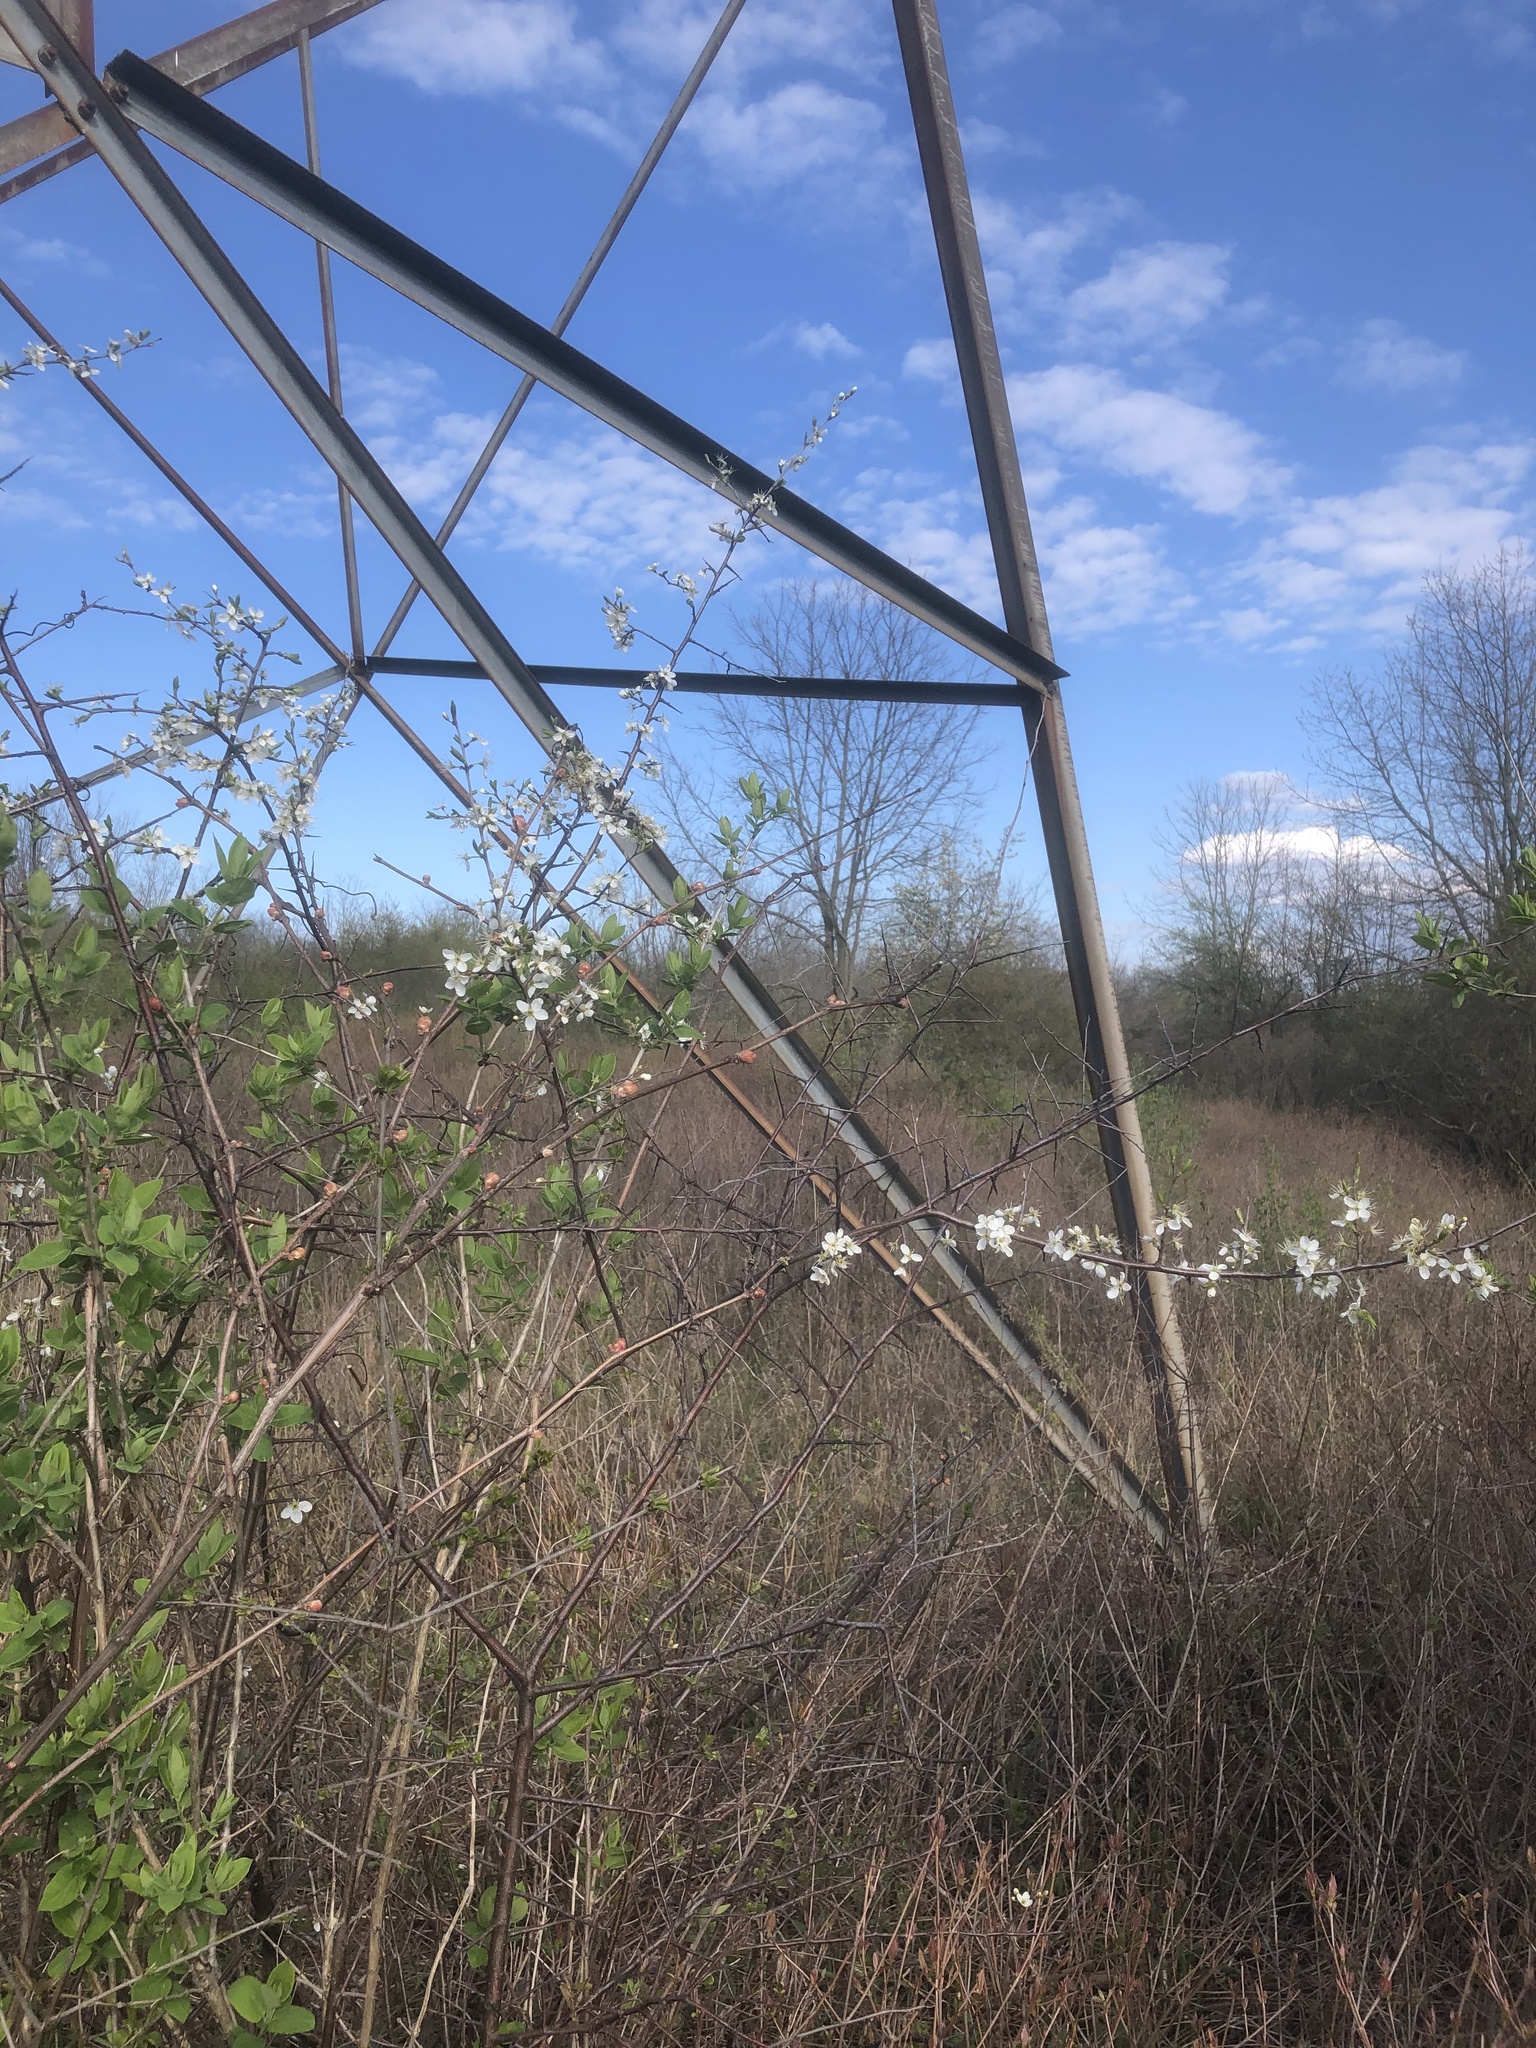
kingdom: Plantae
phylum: Tracheophyta
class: Magnoliopsida
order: Rosales
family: Rosaceae
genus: Prunus
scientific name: Prunus americana
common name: American plum
